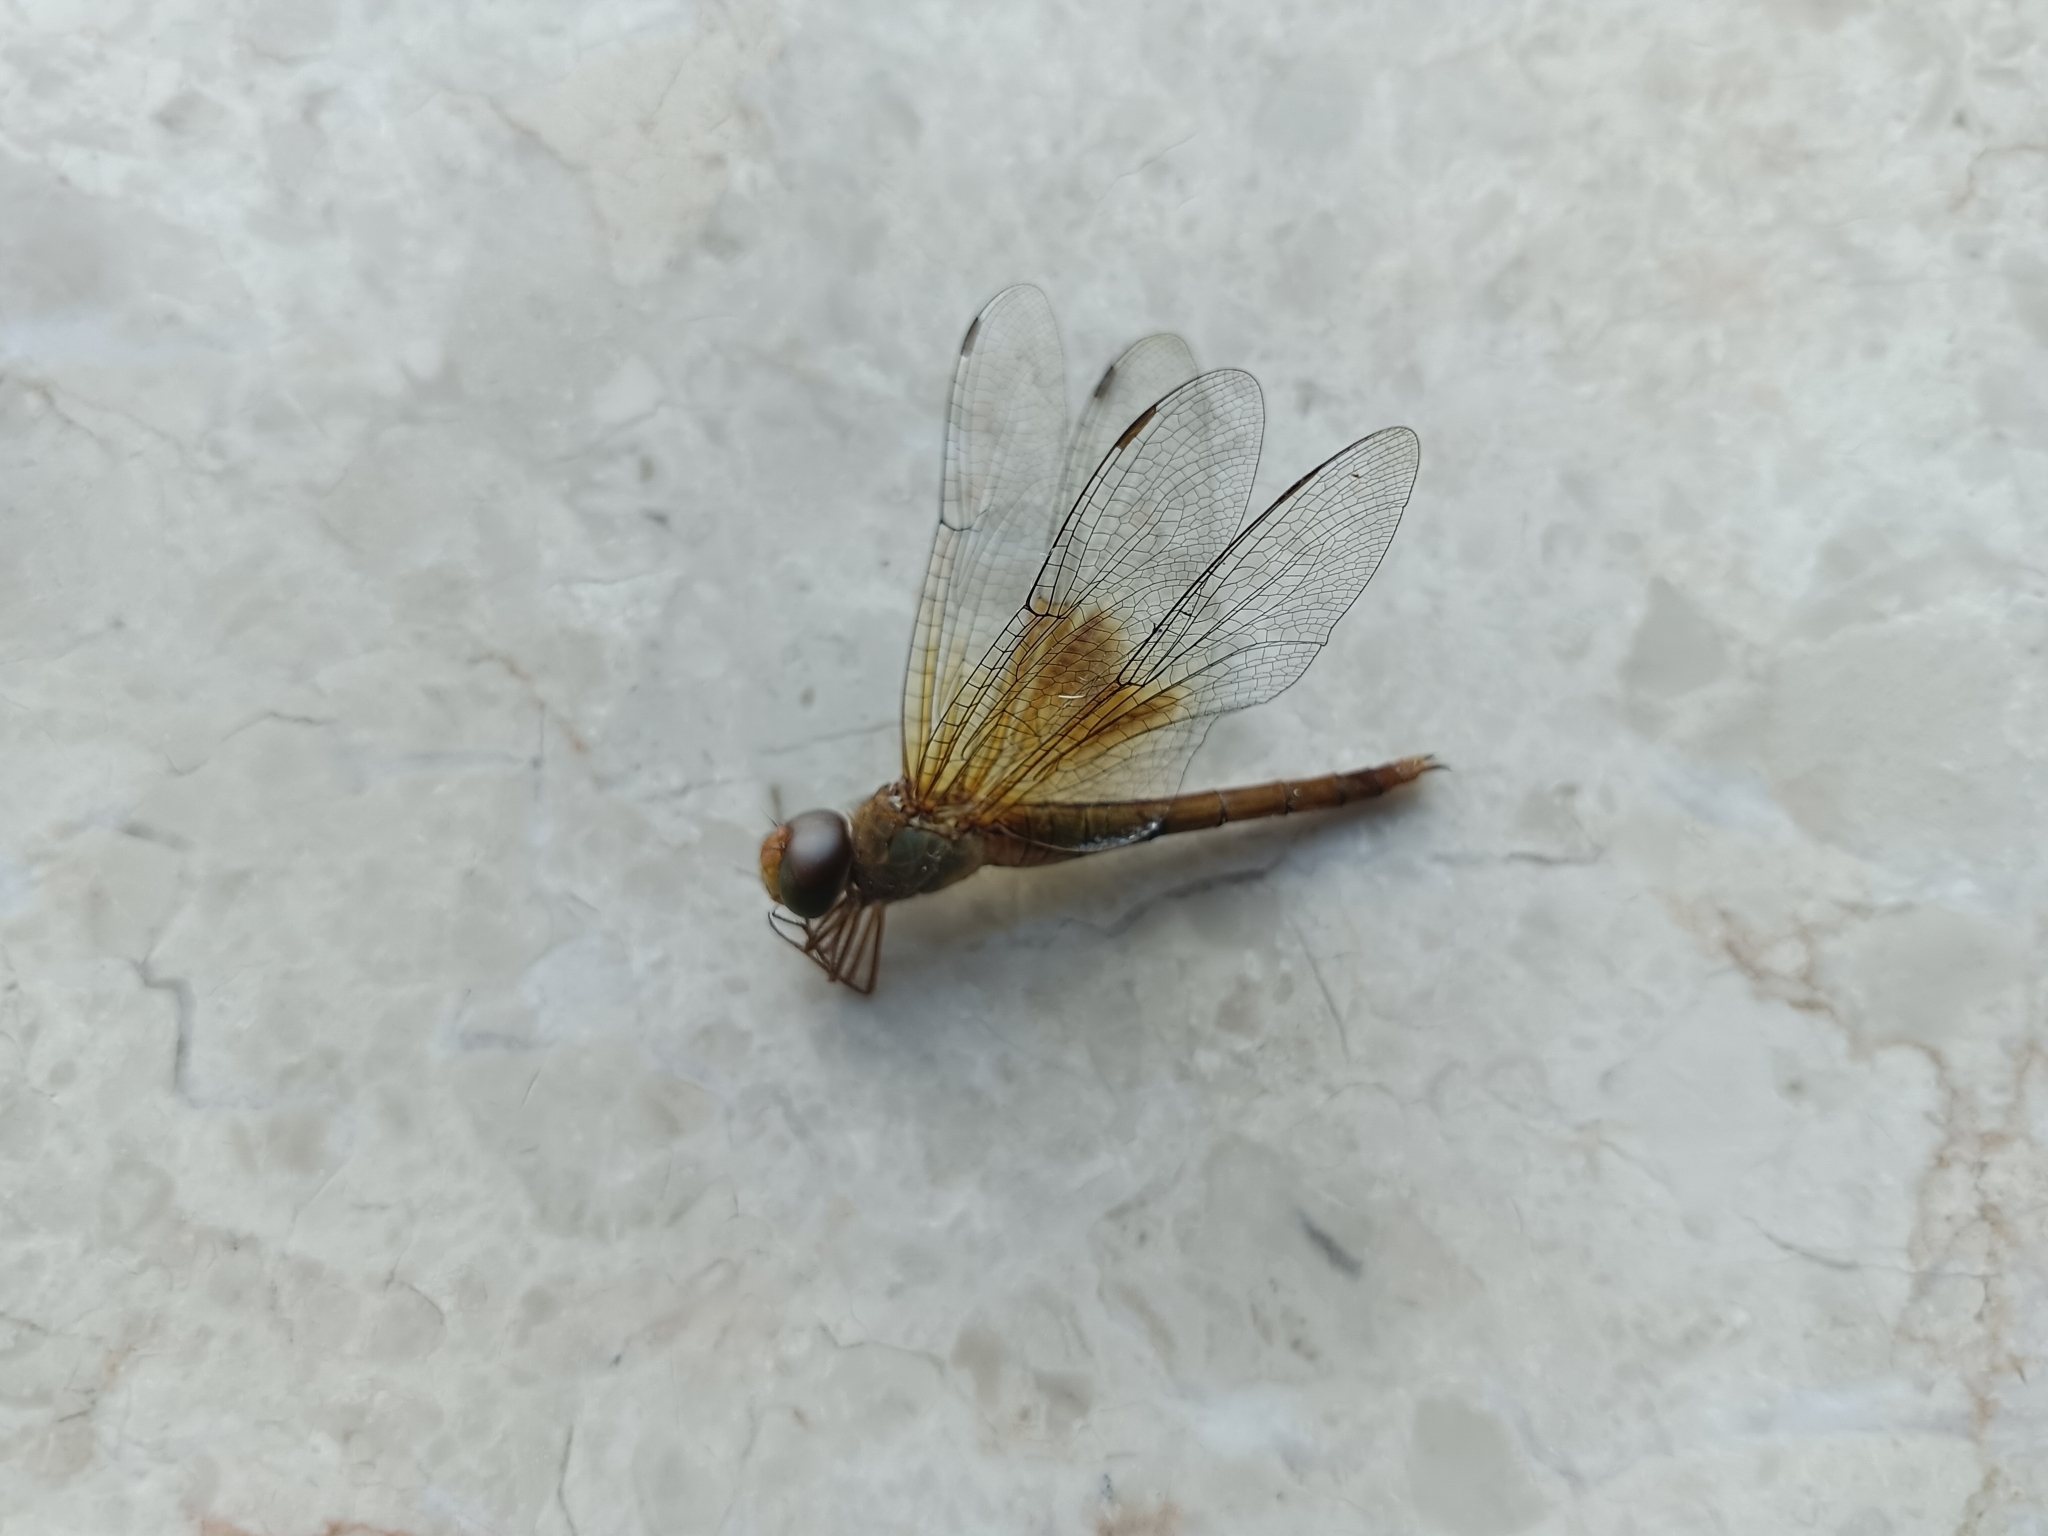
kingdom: Animalia
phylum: Arthropoda
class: Insecta
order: Odonata
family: Libellulidae
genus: Tholymis
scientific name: Tholymis tillarga
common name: Coral-tailed cloud wing
